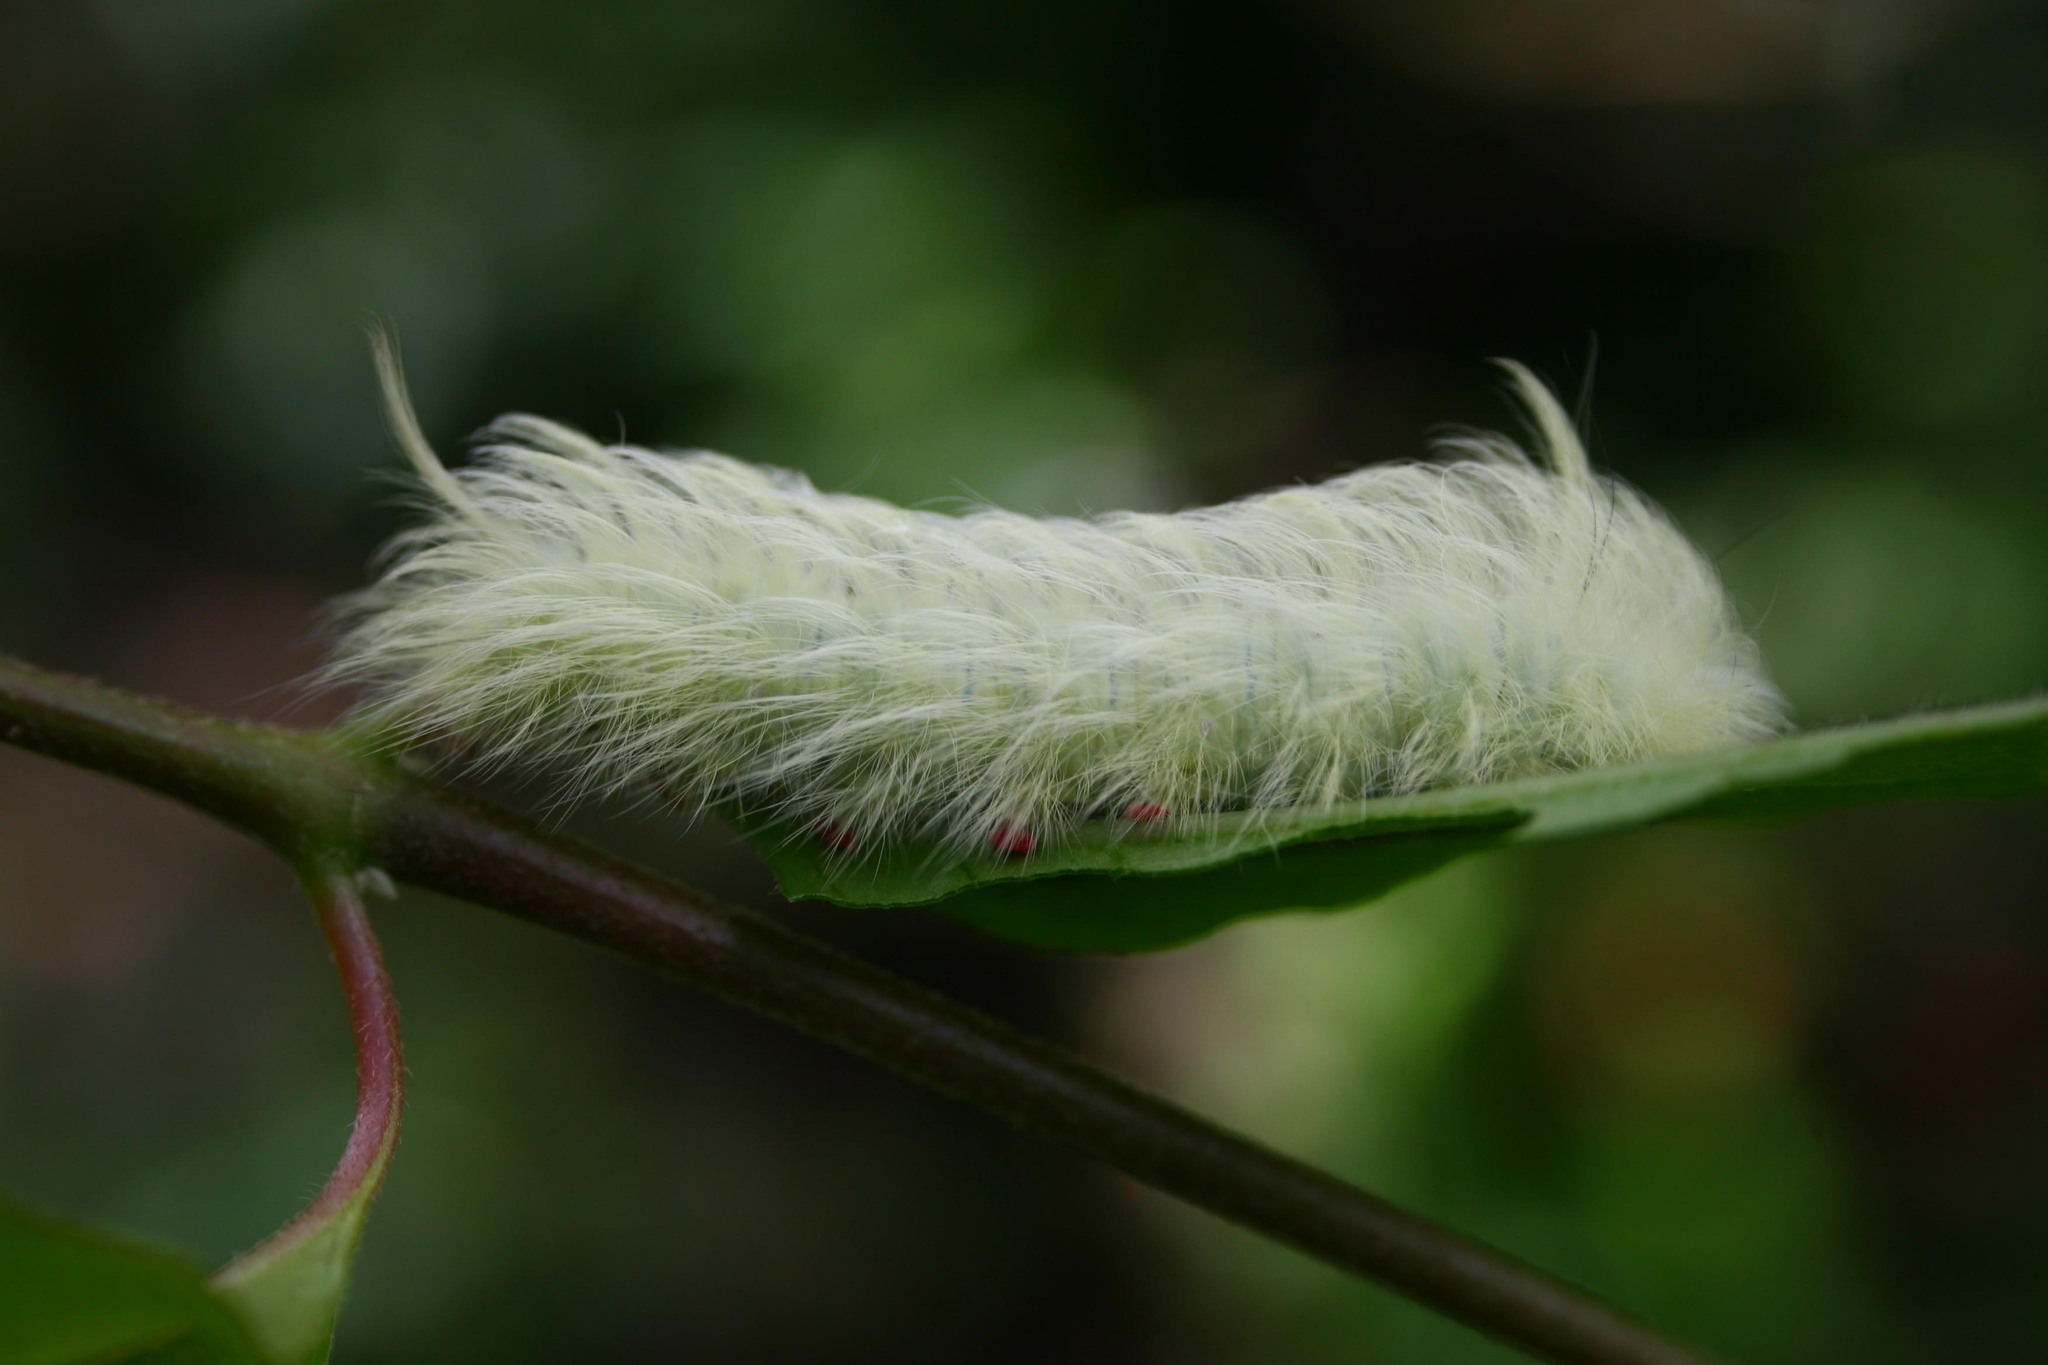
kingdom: Animalia
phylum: Arthropoda
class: Insecta
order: Lepidoptera
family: Apatelodidae
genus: Hygrochroa
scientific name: Hygrochroa Apatelodes torrefacta
